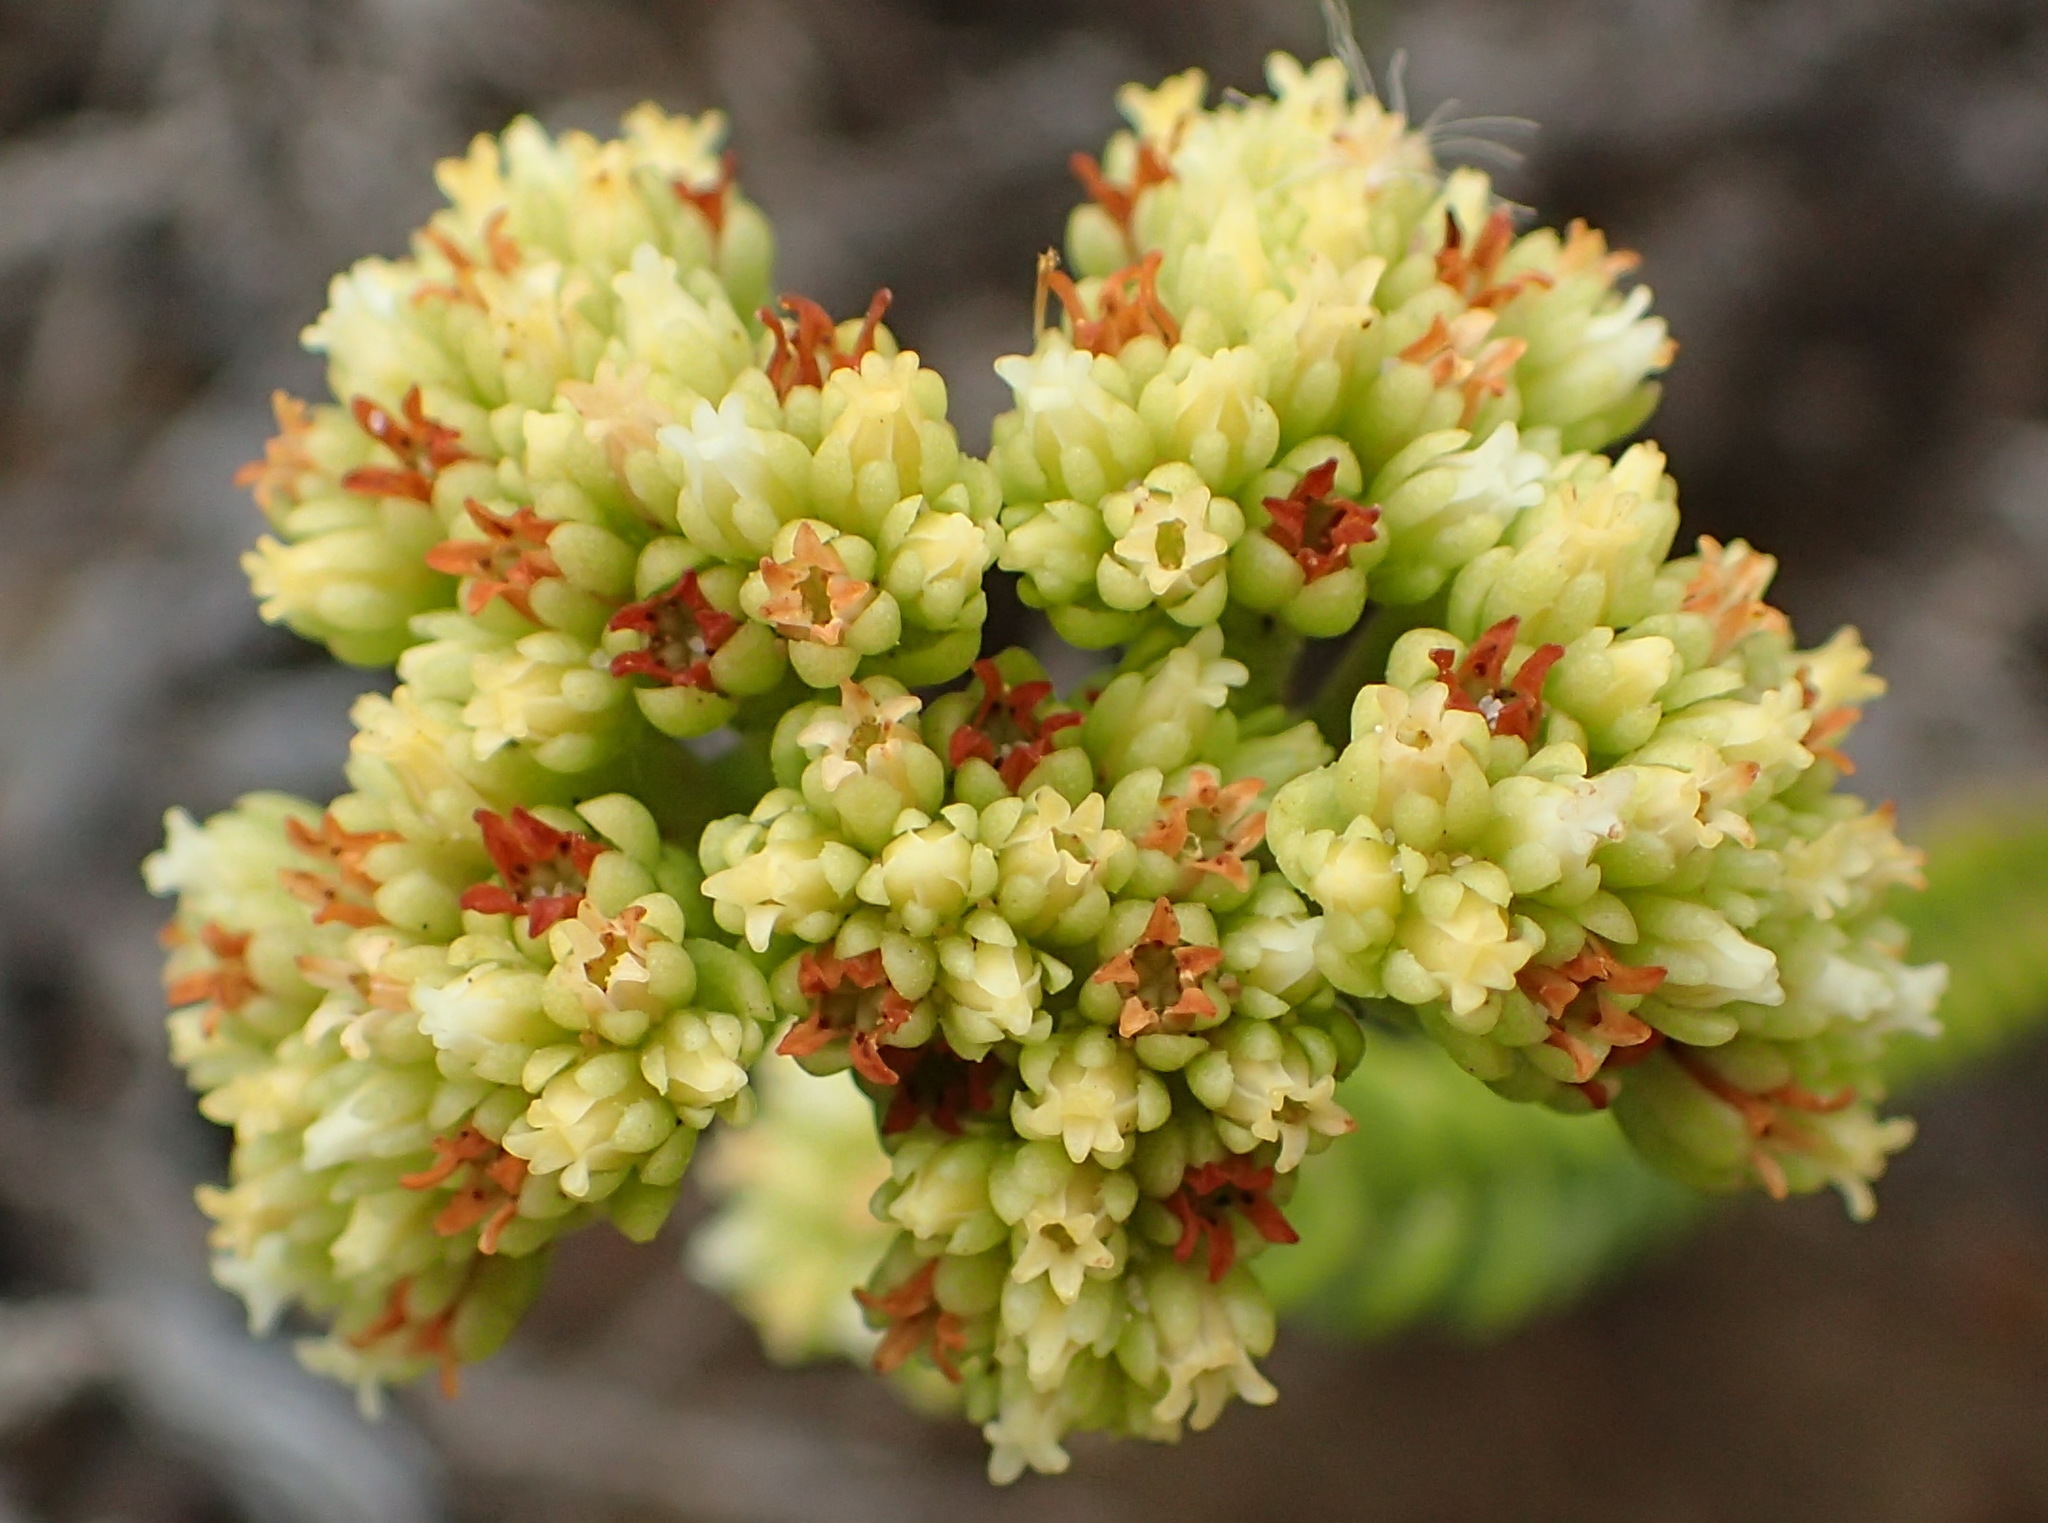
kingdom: Plantae
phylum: Tracheophyta
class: Magnoliopsida
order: Saxifragales
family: Crassulaceae
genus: Crassula
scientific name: Crassula subulata
